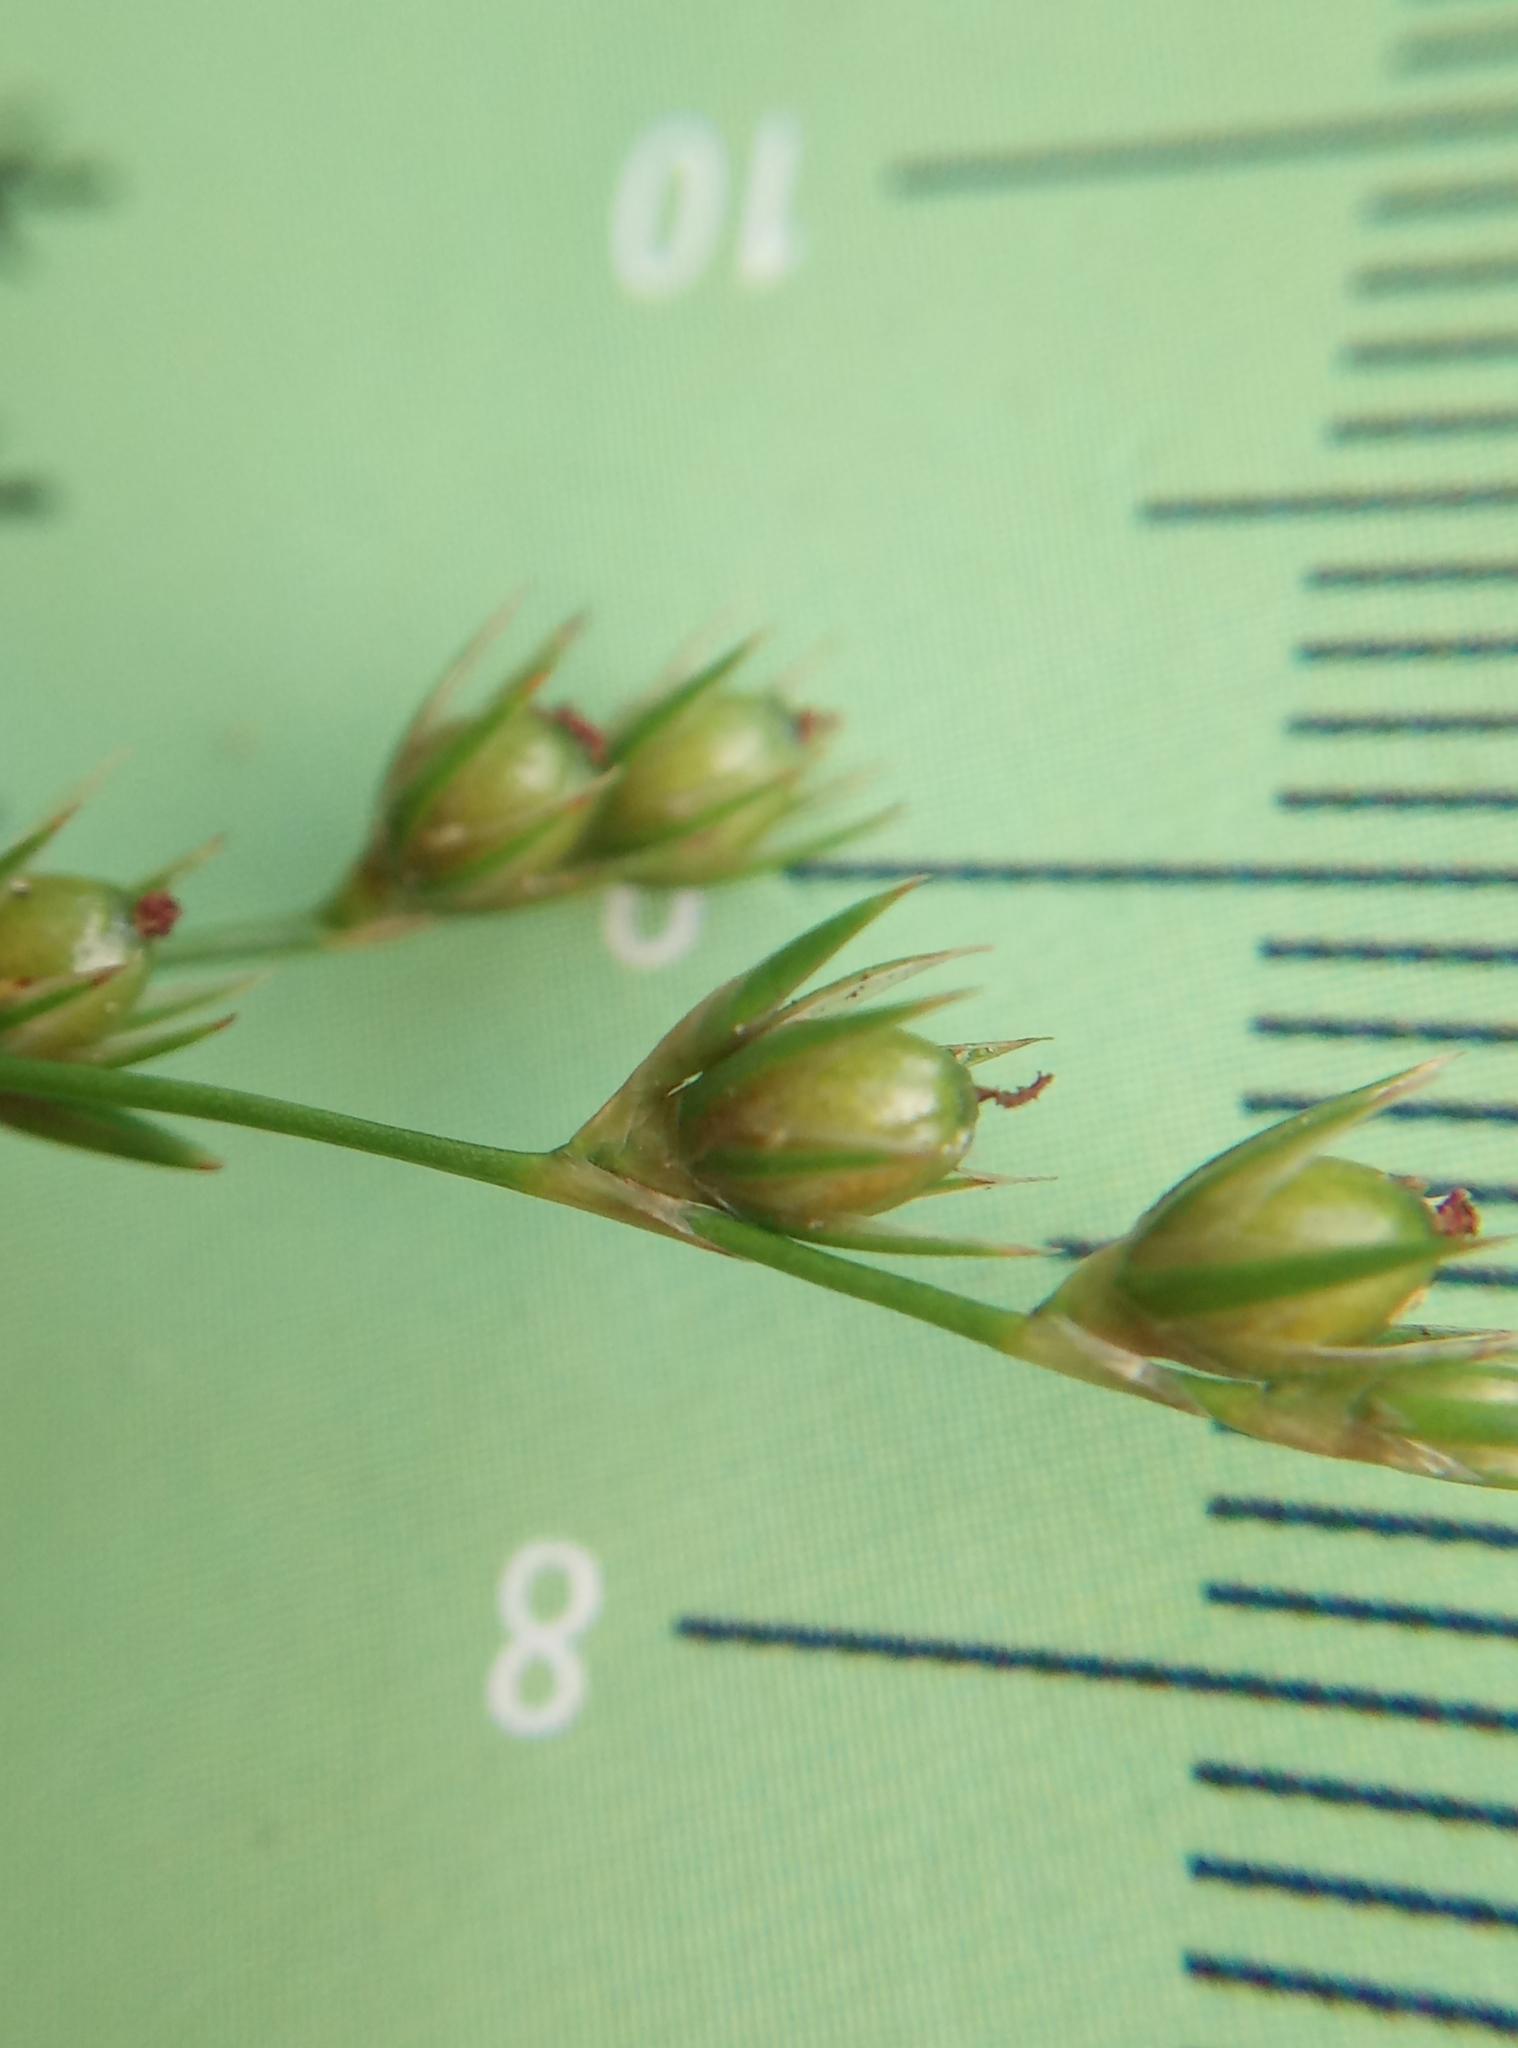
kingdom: Plantae
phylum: Tracheophyta
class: Liliopsida
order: Poales
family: Juncaceae
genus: Juncus
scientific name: Juncus tenuis
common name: Slender rush
